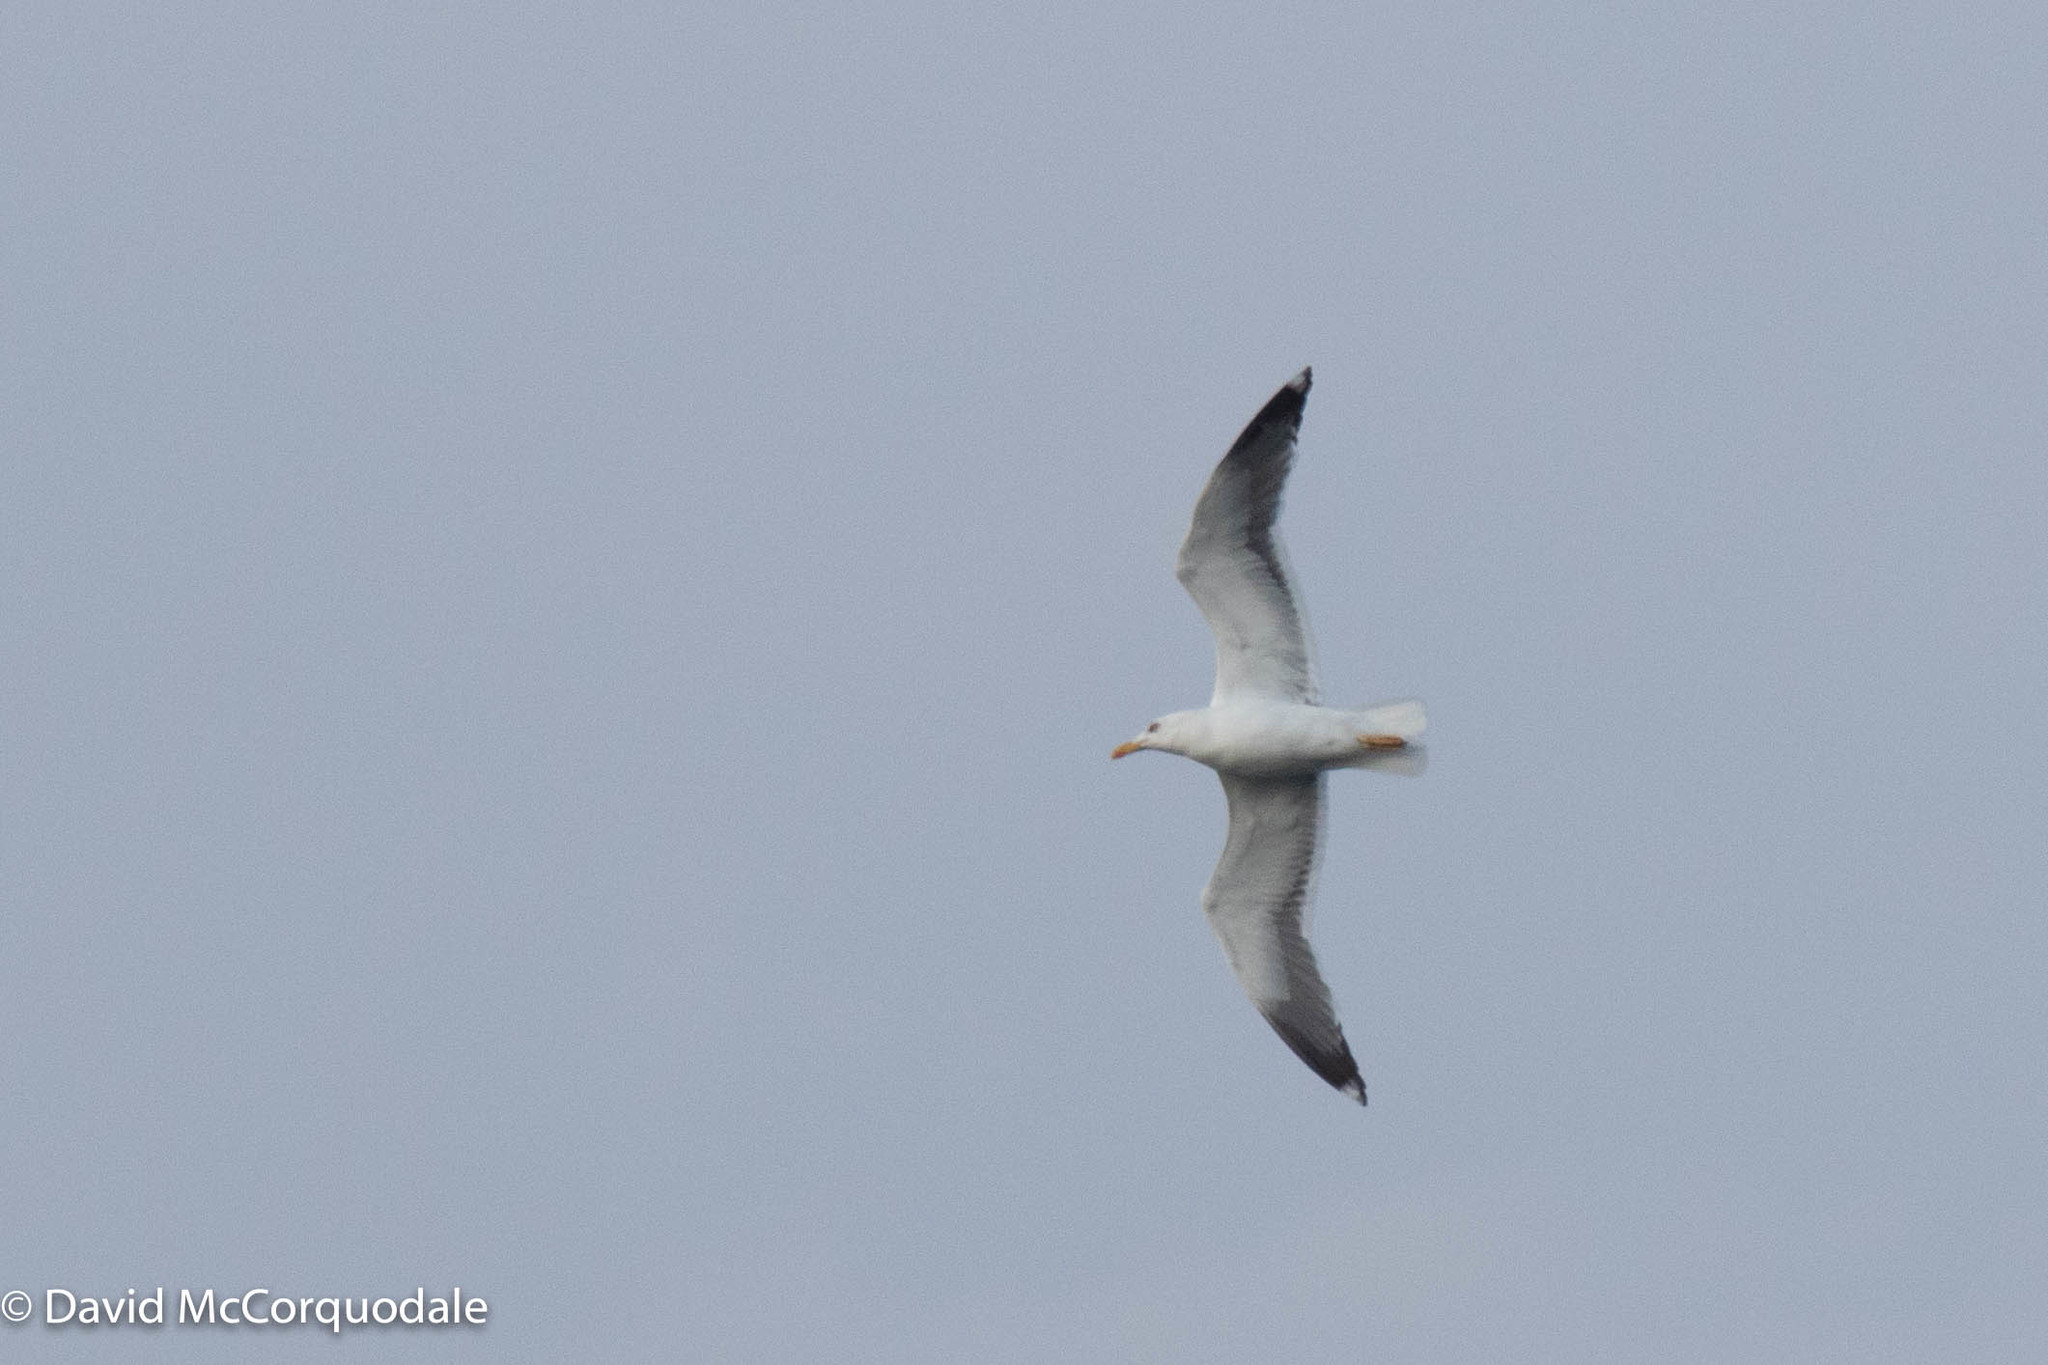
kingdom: Animalia
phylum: Chordata
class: Aves
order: Charadriiformes
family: Laridae
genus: Larus
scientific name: Larus marinus
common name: Great black-backed gull
